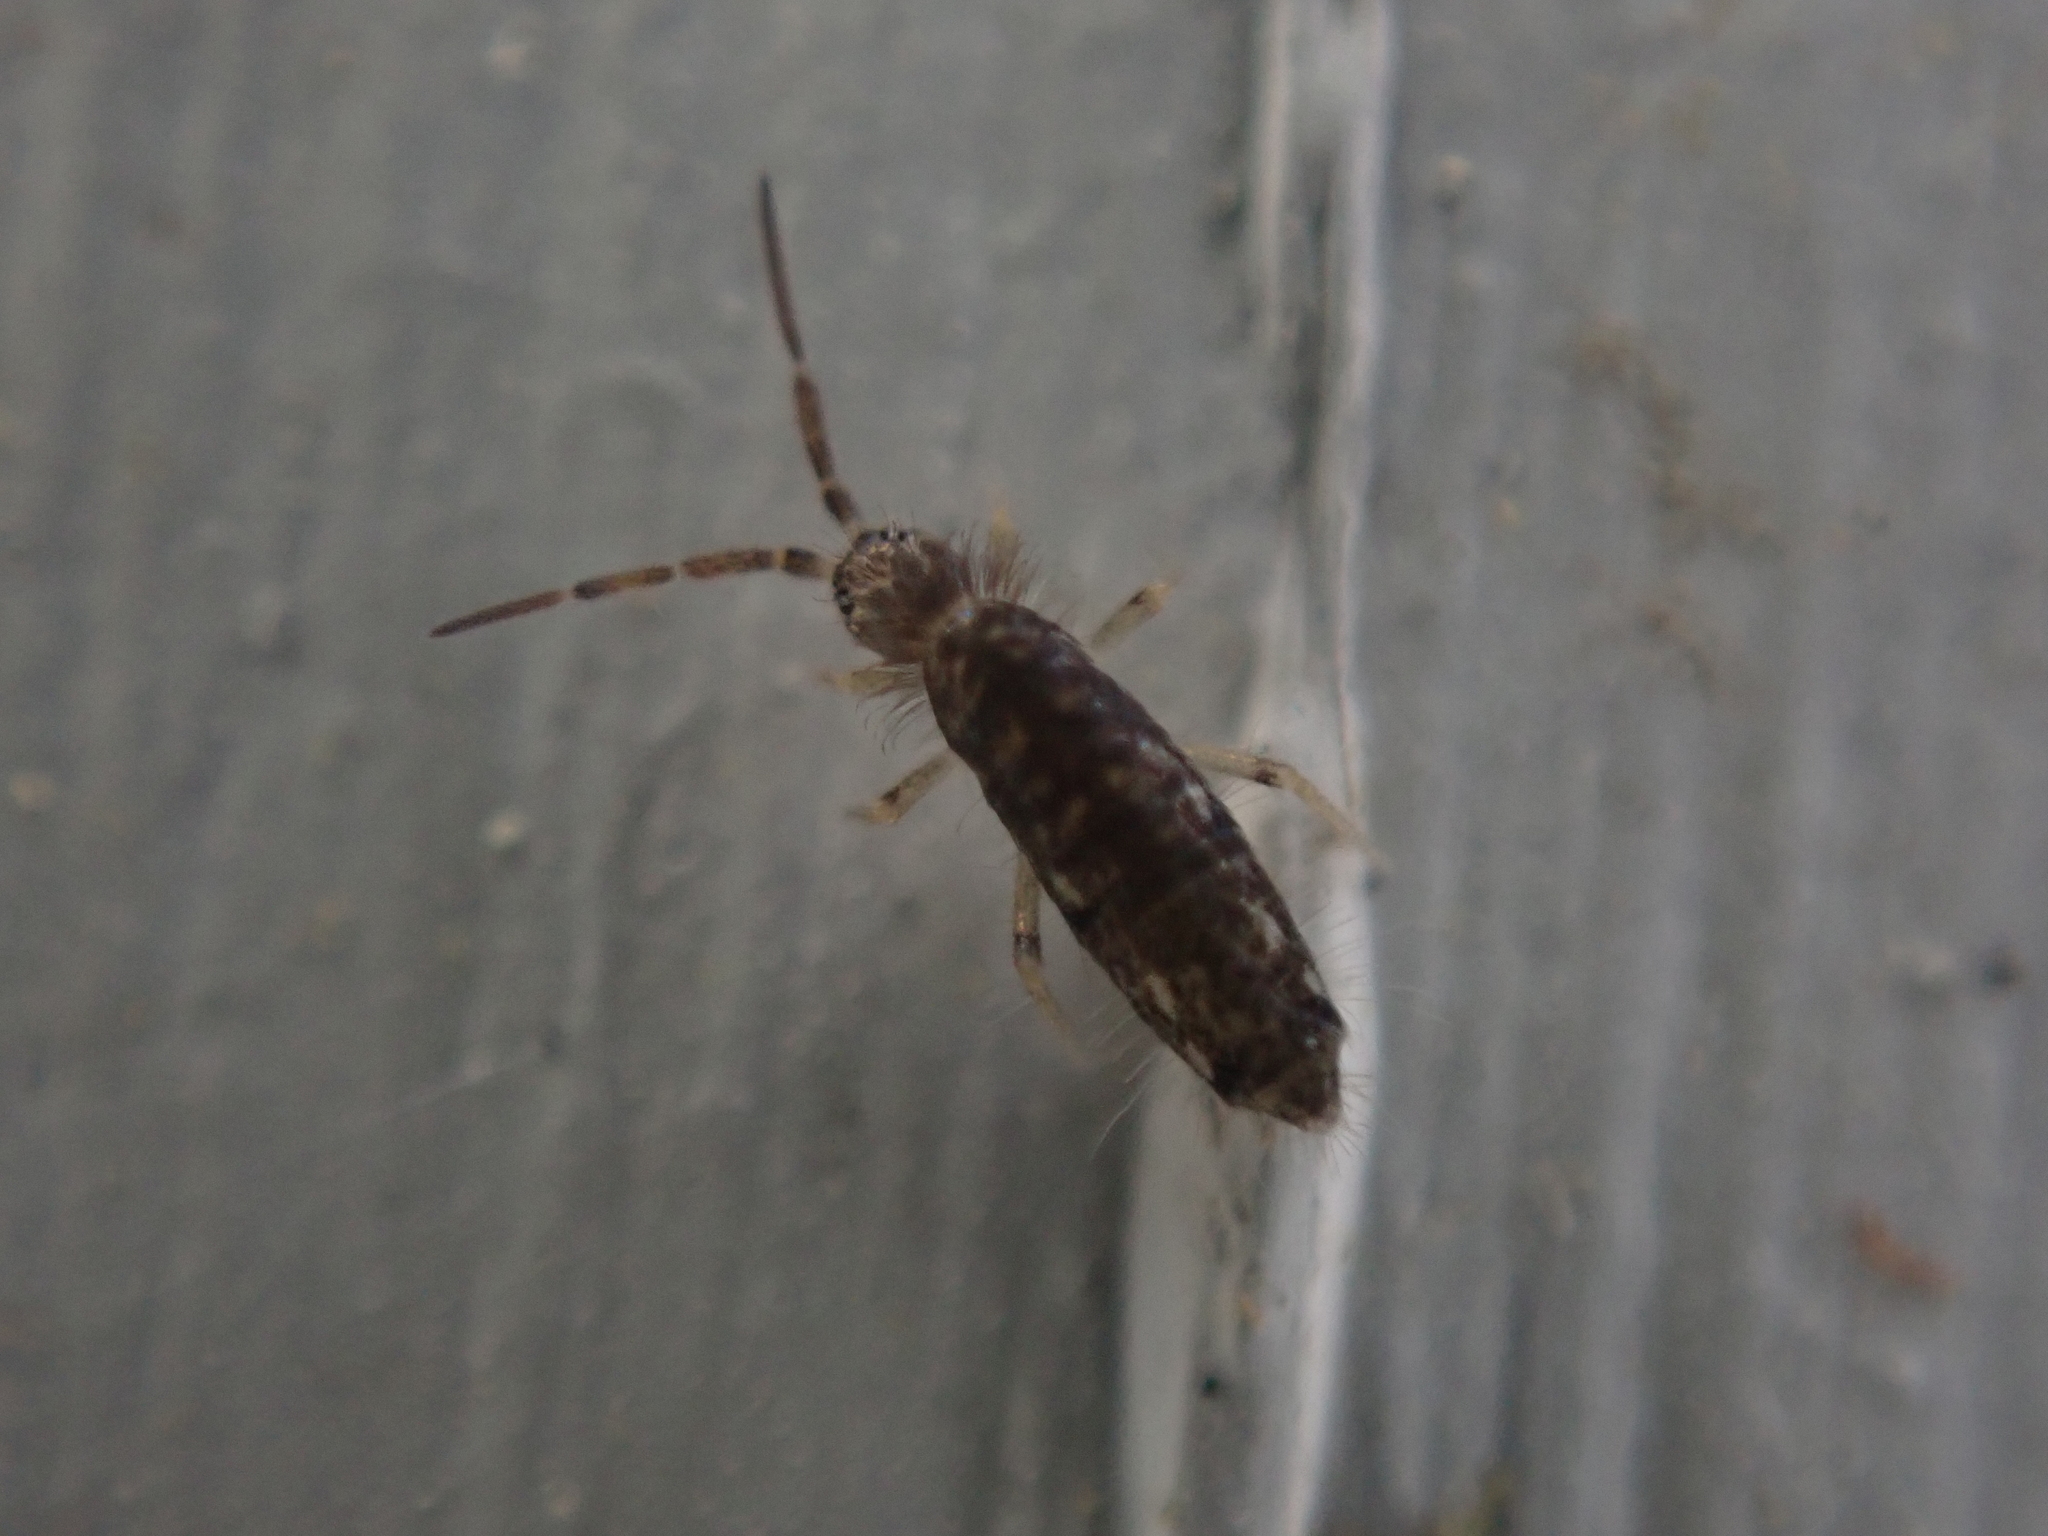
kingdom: Animalia
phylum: Arthropoda
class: Collembola
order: Entomobryomorpha
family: Entomobryidae
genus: Seira
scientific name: Seira bipunctata
